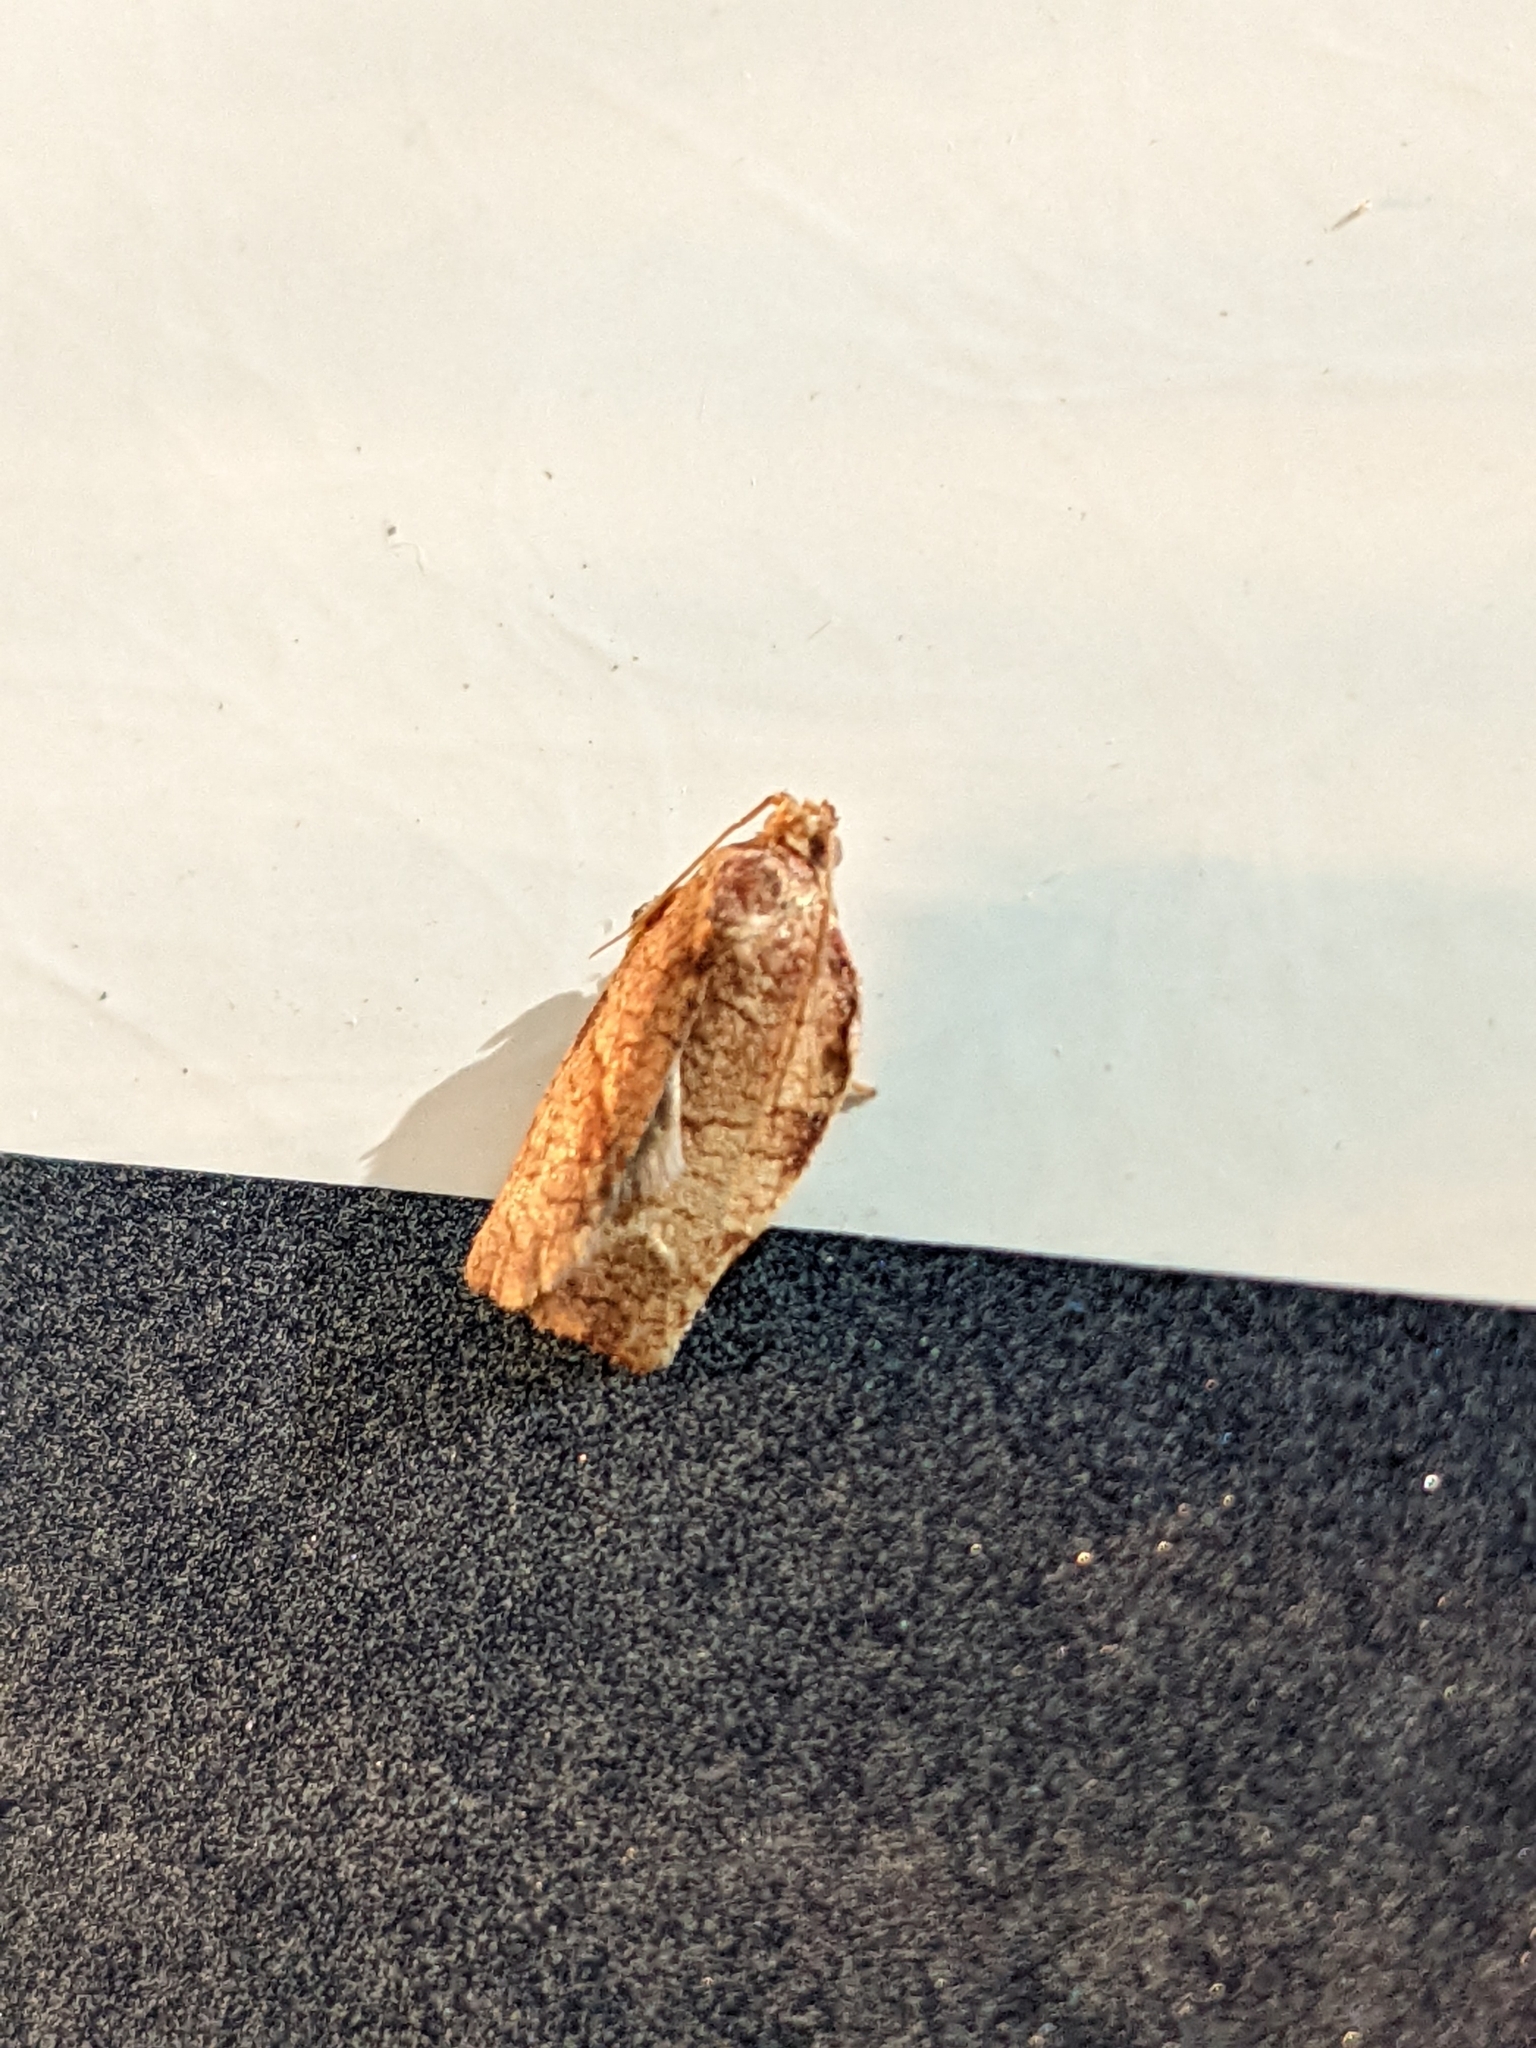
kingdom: Animalia
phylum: Arthropoda
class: Insecta
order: Lepidoptera
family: Tortricidae
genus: Choristoneura
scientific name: Choristoneura rosaceana
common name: Oblique-banded leafroller moth
